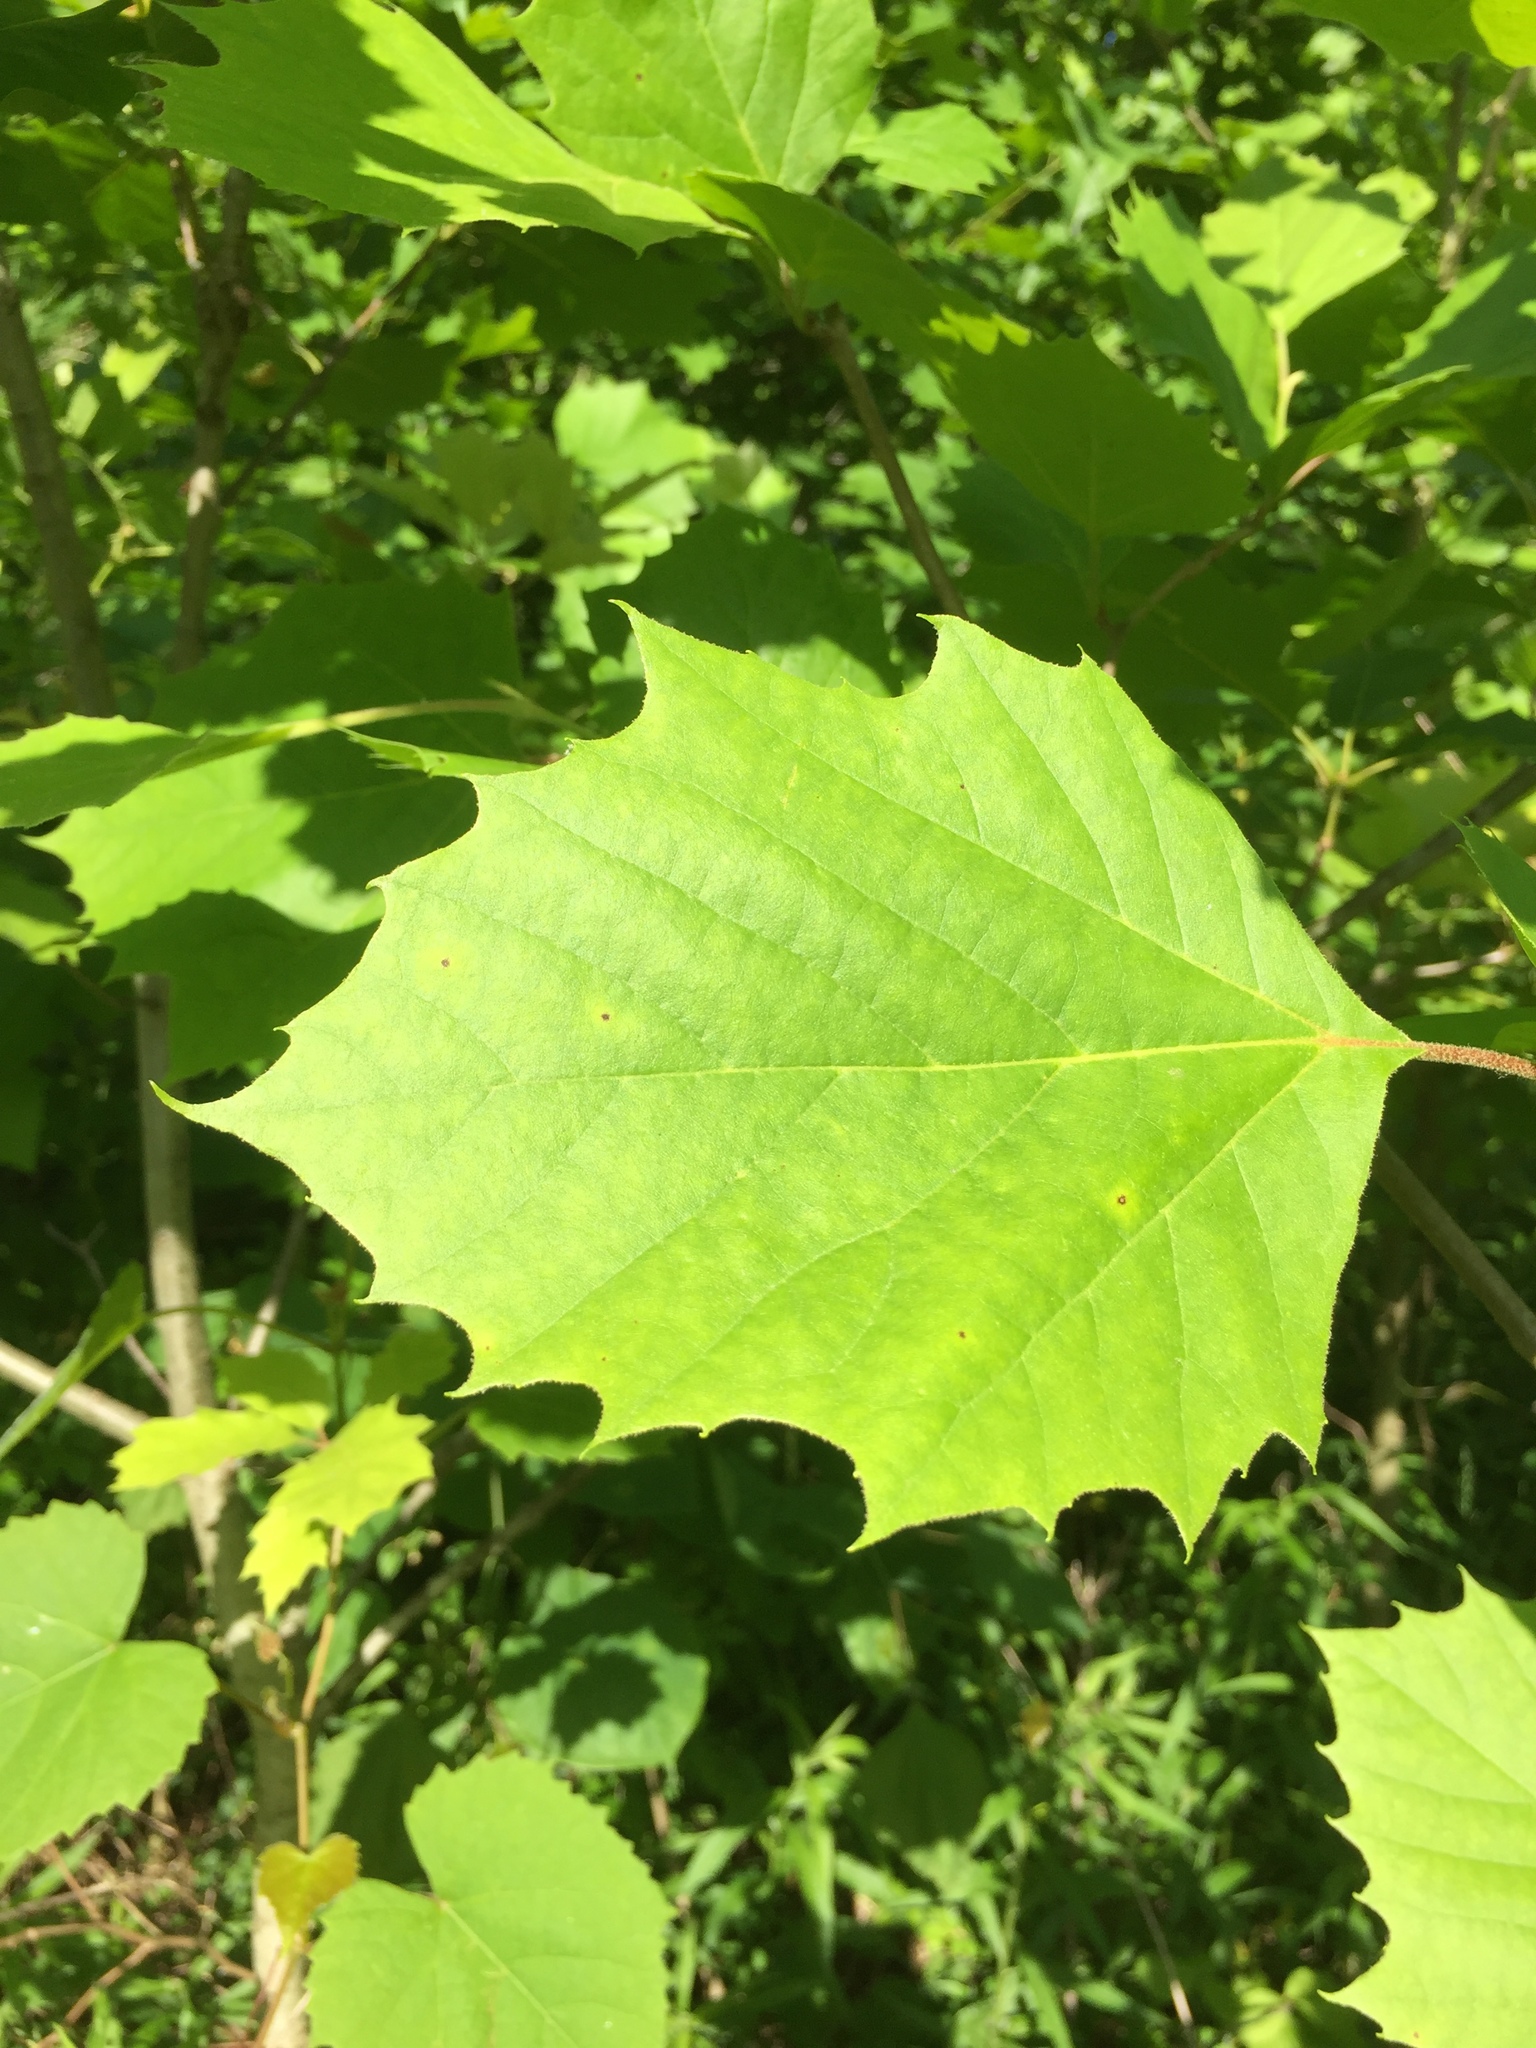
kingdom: Plantae
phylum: Tracheophyta
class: Magnoliopsida
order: Proteales
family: Platanaceae
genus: Platanus
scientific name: Platanus occidentalis
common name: American sycamore
